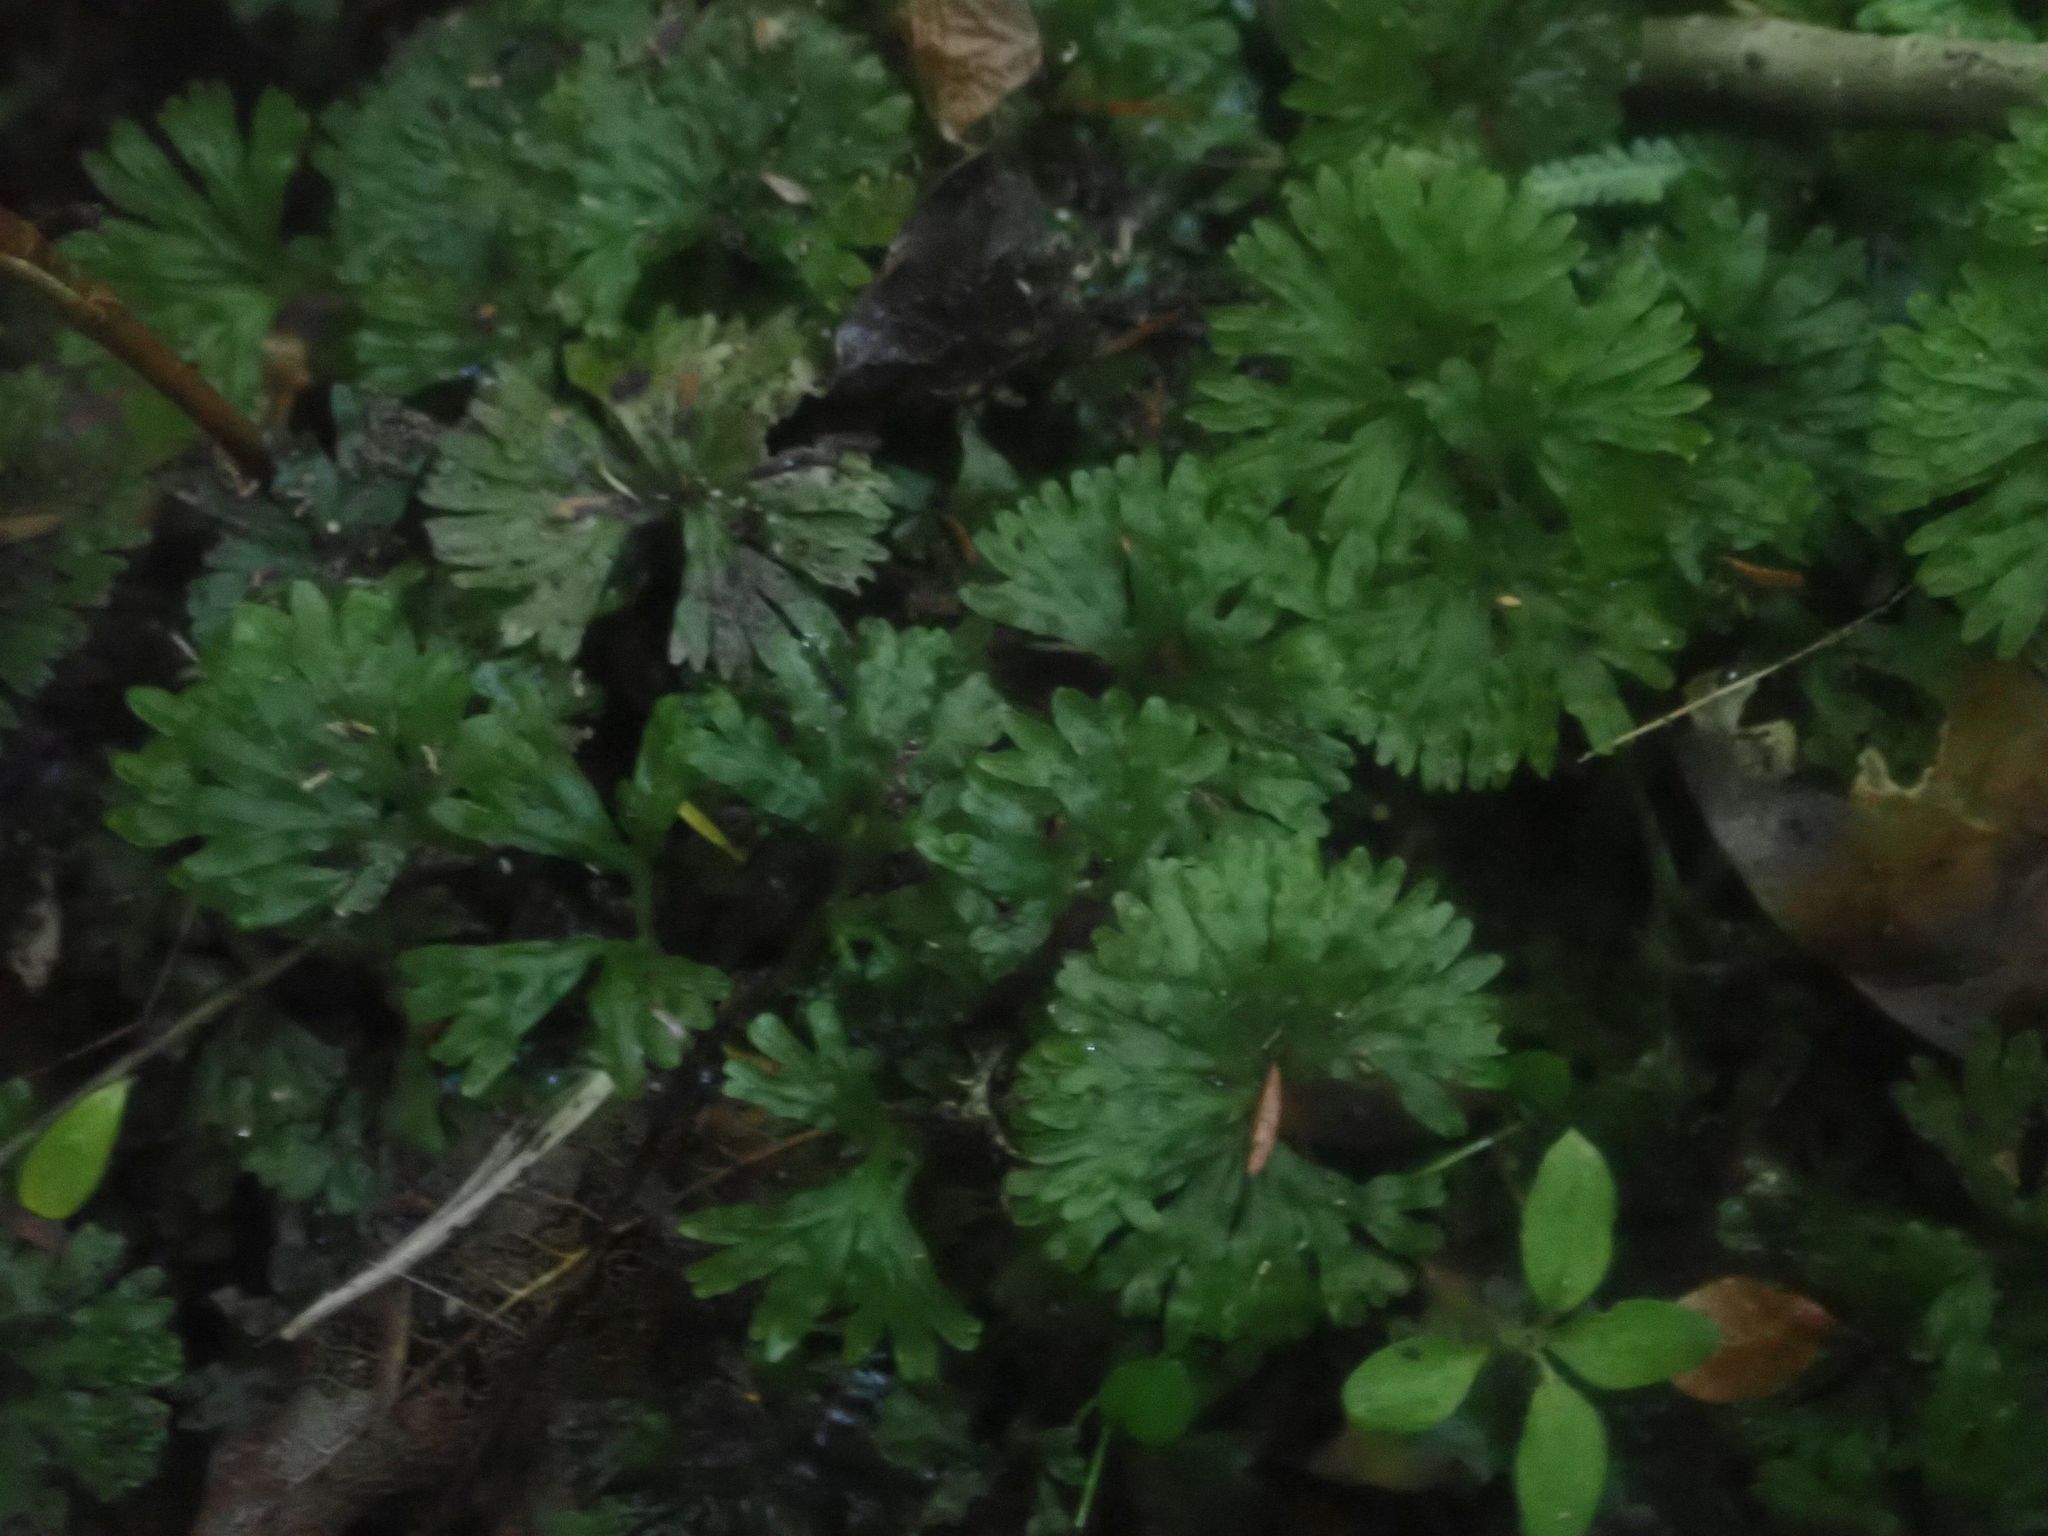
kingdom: Plantae
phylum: Marchantiophyta
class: Jungermanniopsida
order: Pallaviciniales
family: Hymenophytaceae
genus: Hymenophyton
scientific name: Hymenophyton flabellatum
